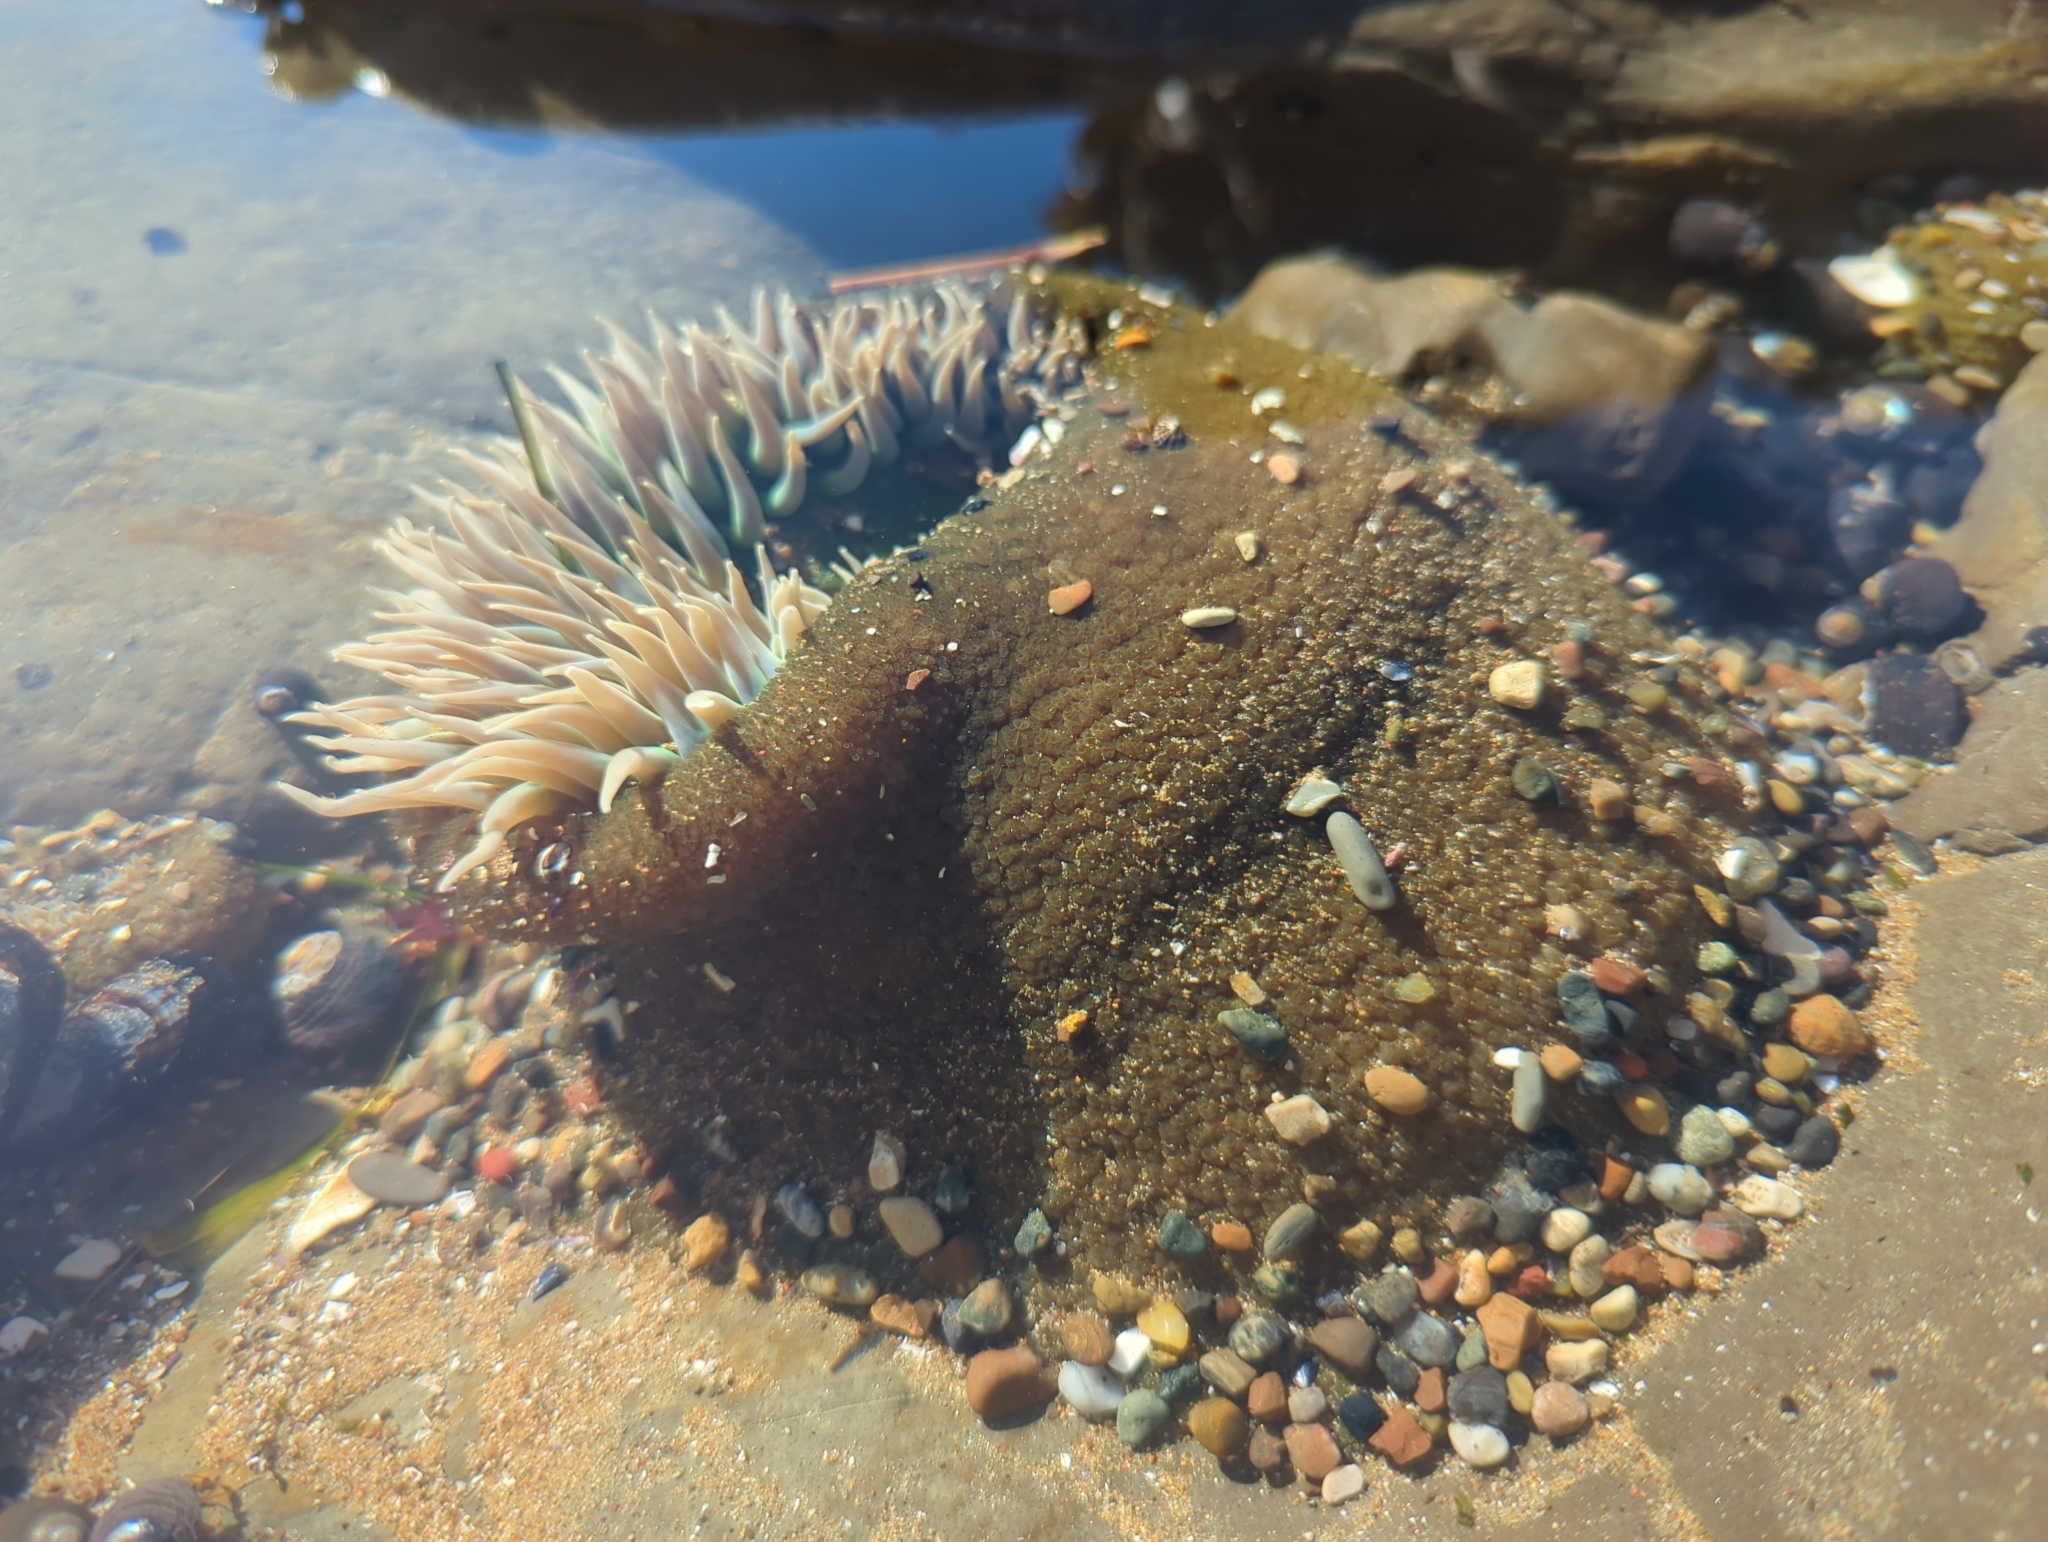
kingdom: Animalia
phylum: Cnidaria
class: Anthozoa
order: Actiniaria
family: Actiniidae
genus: Anthopleura
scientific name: Anthopleura xanthogrammica
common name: Giant green anemone
